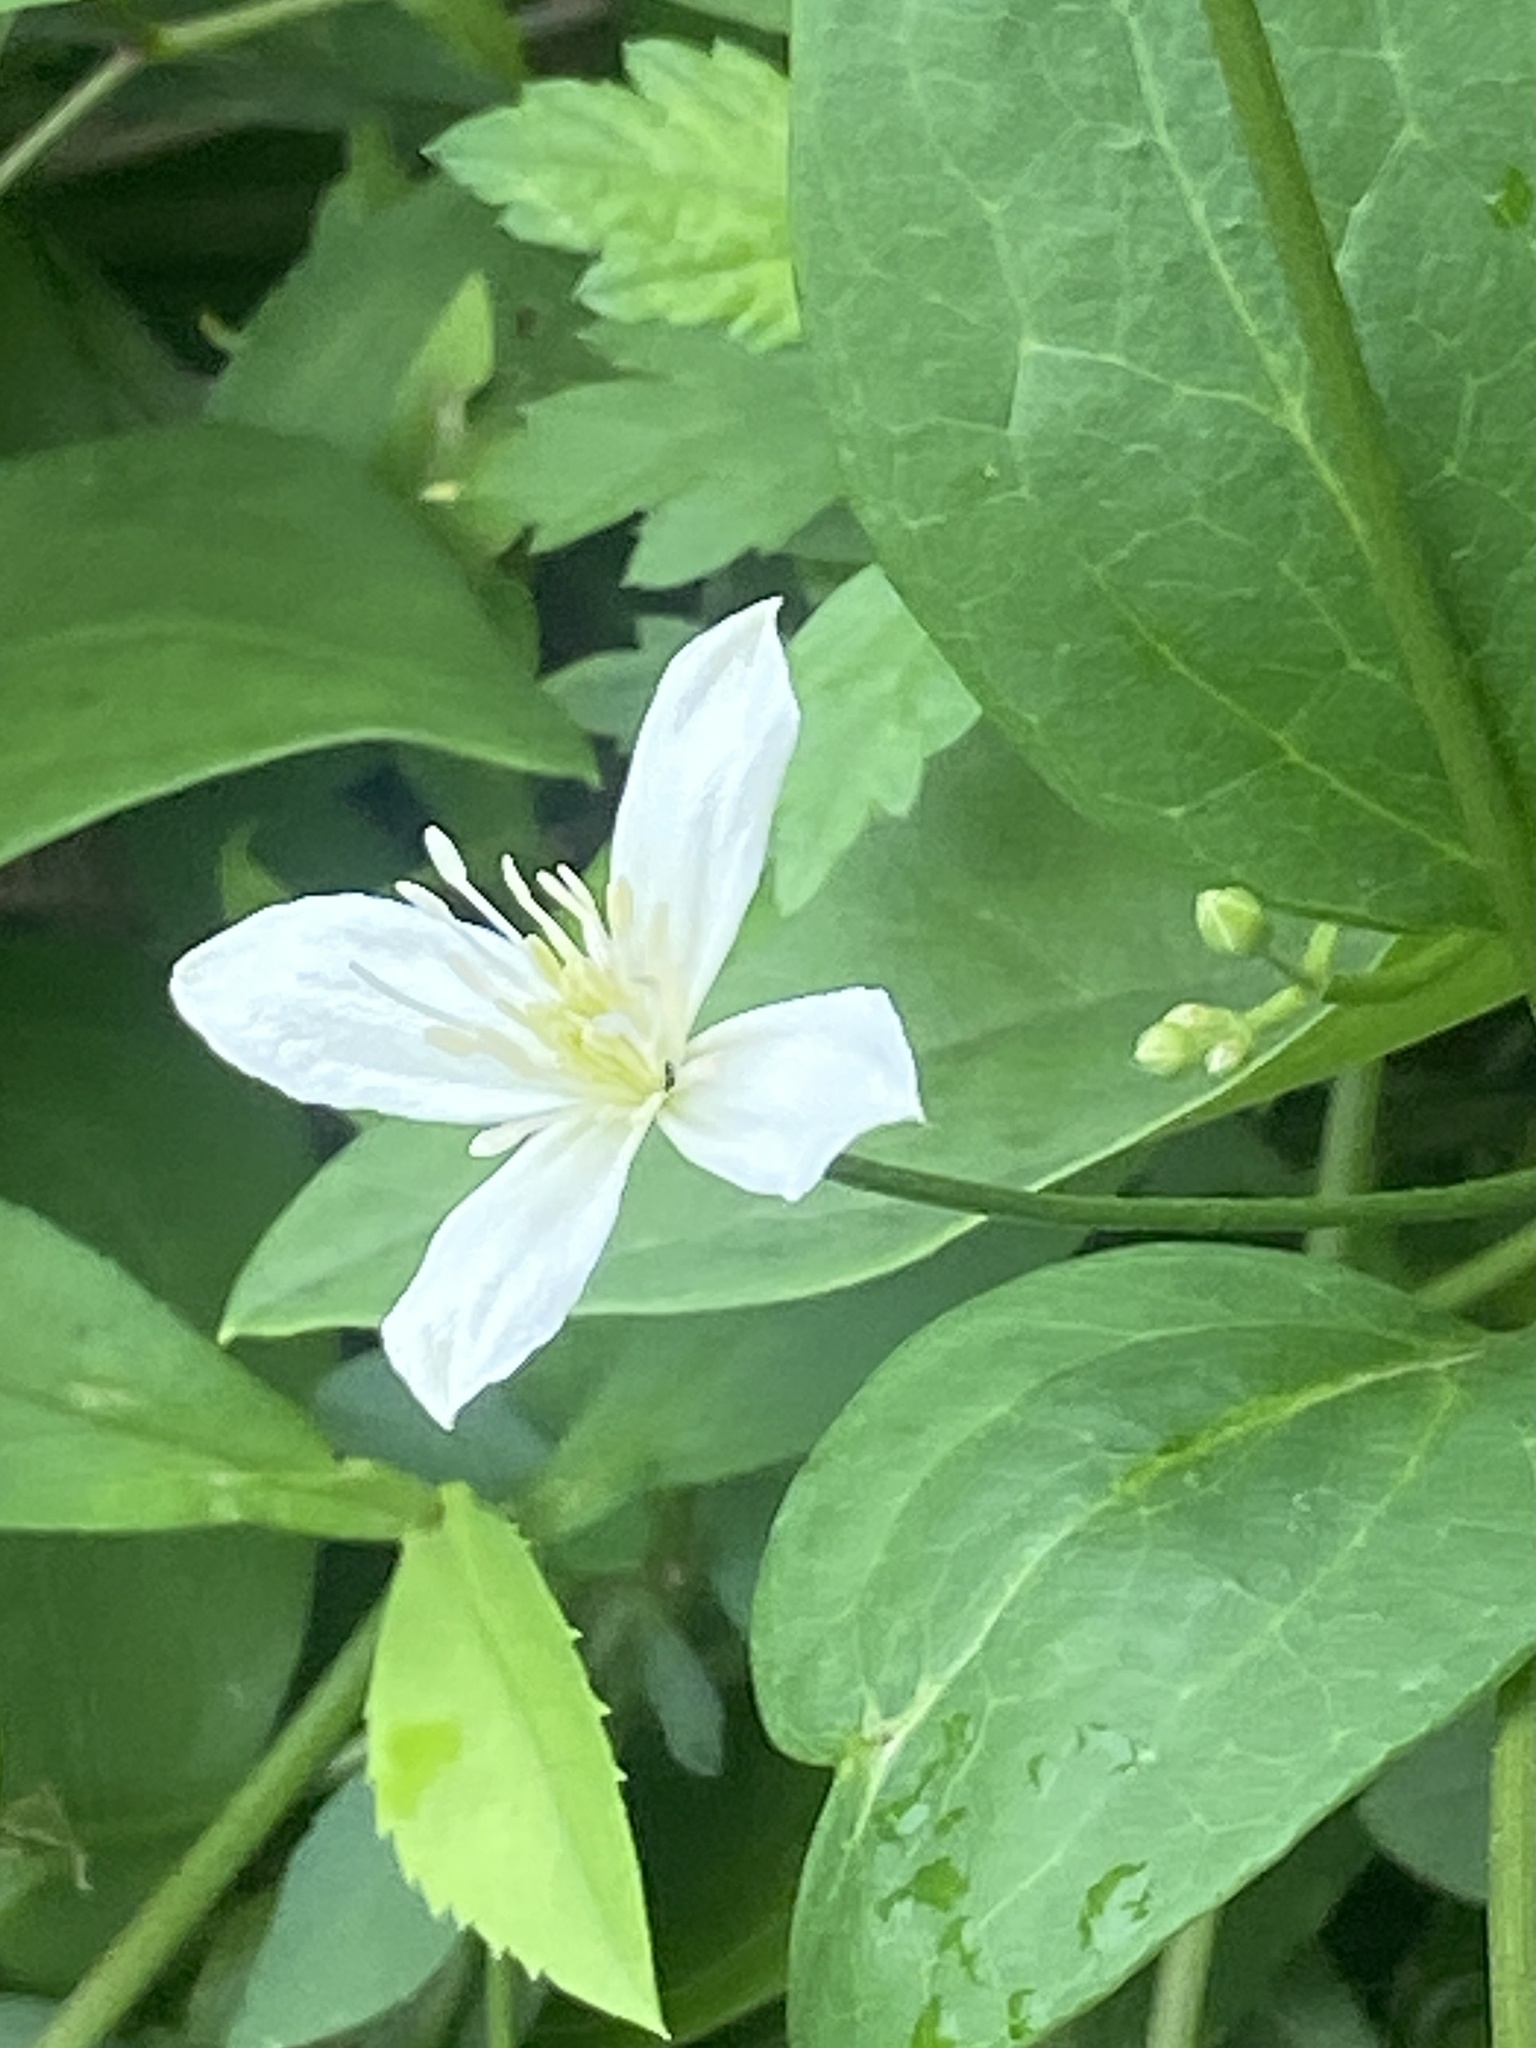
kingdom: Plantae
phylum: Tracheophyta
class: Magnoliopsida
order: Ranunculales
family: Ranunculaceae
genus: Clematis
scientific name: Clematis terniflora
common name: Sweet autumn clematis
